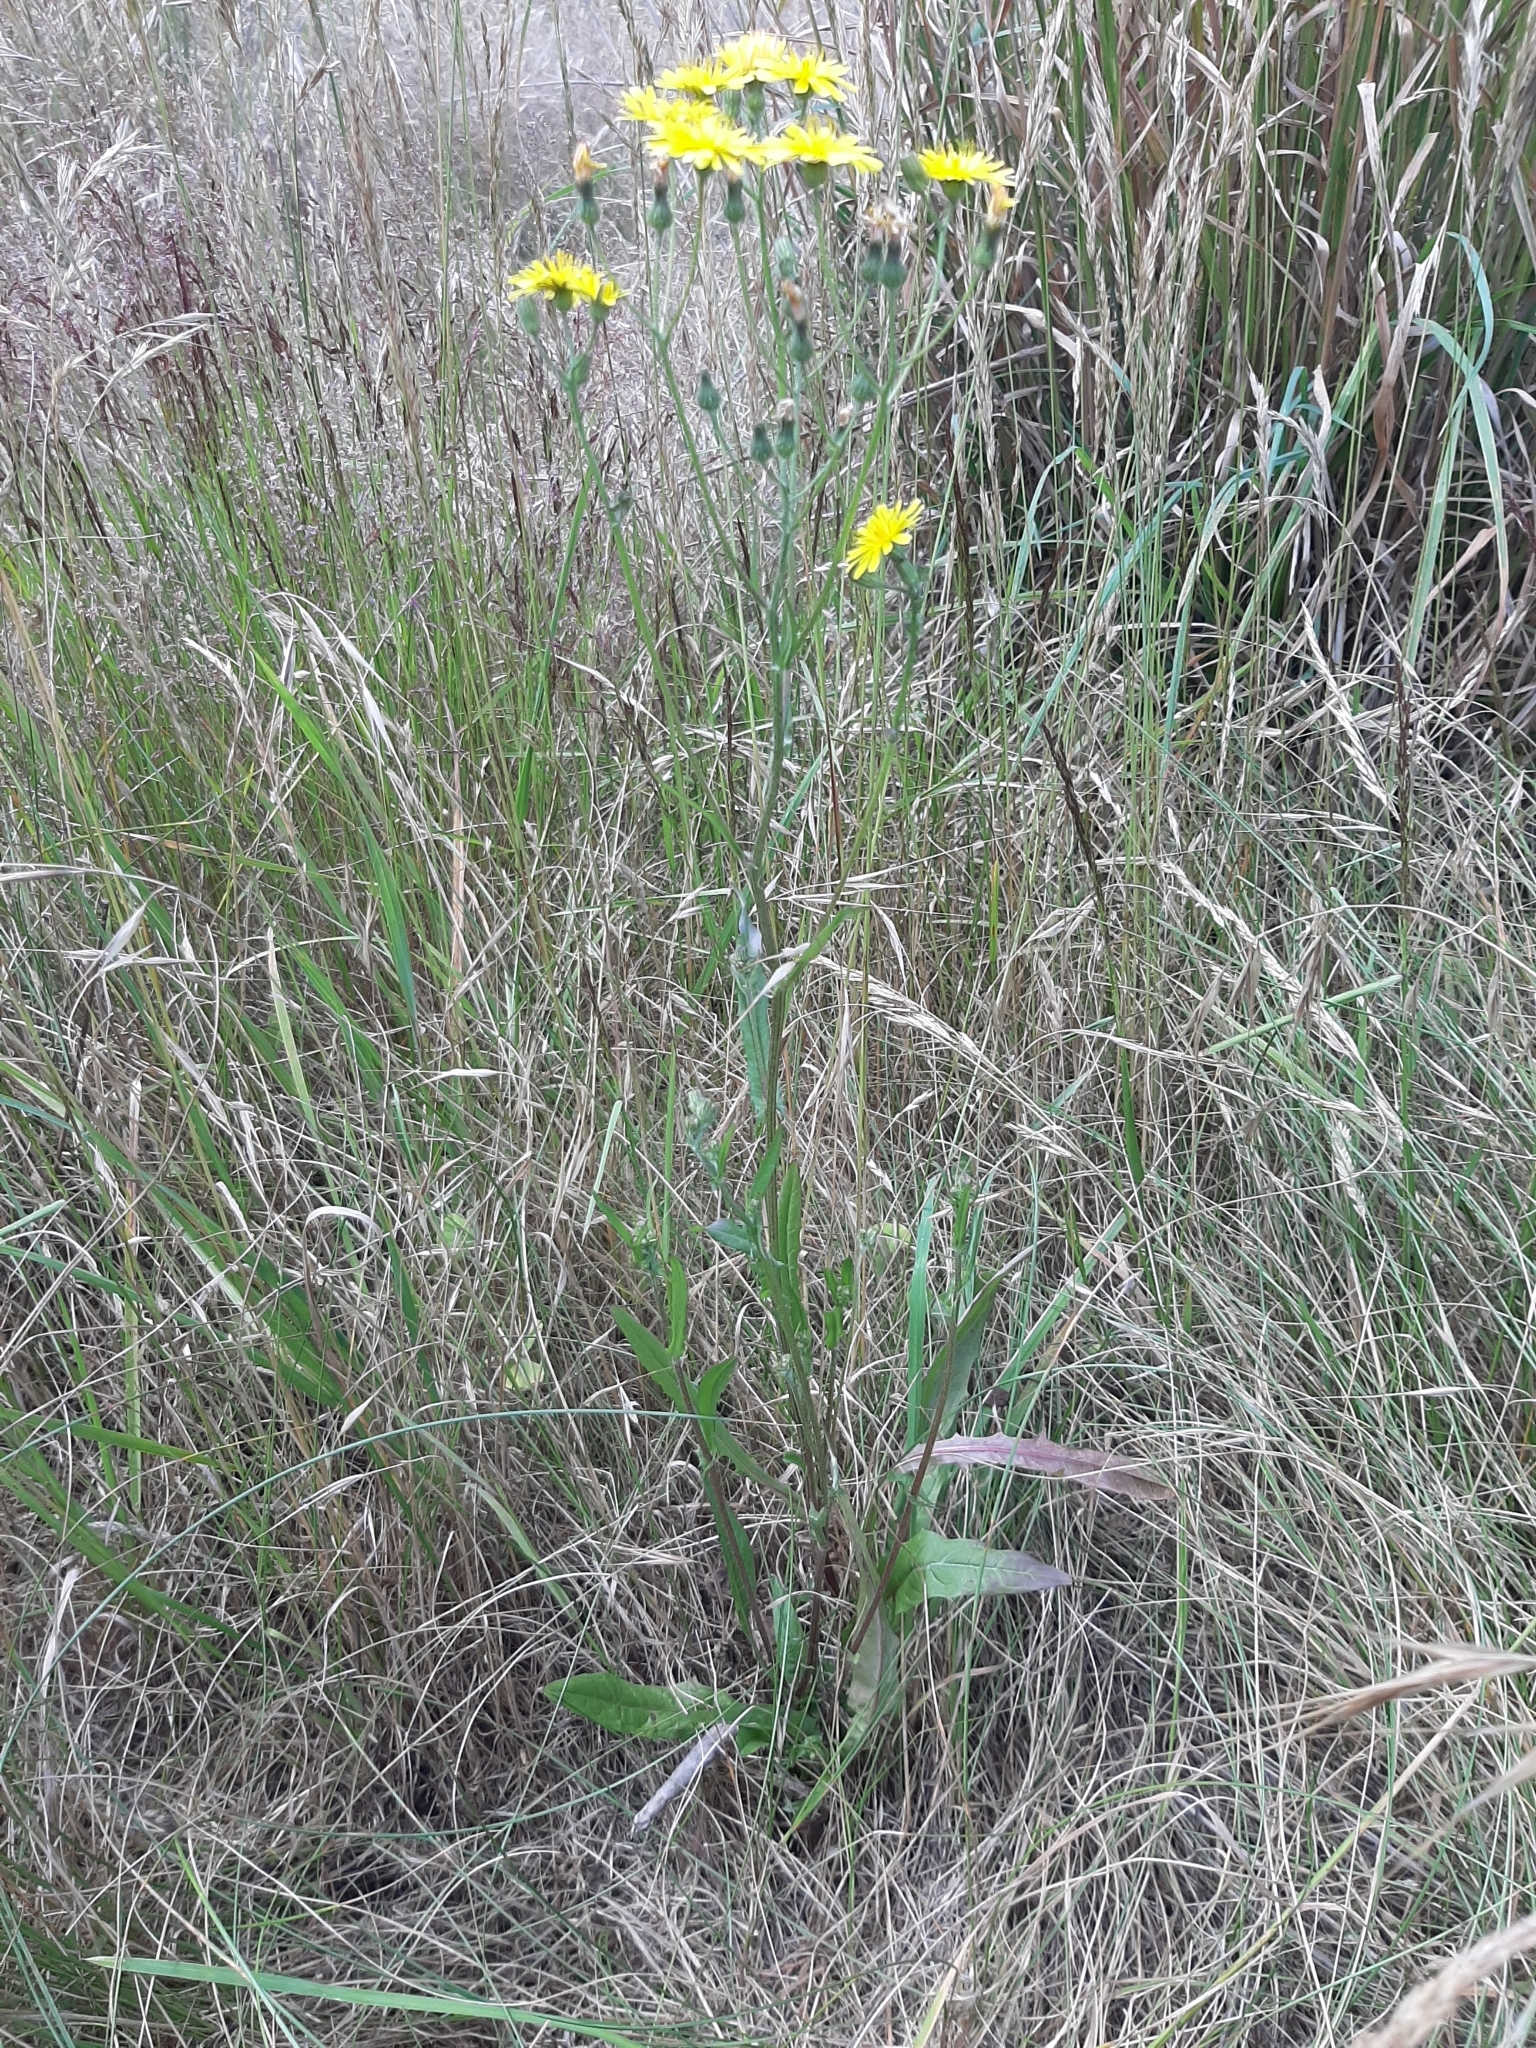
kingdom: Plantae
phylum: Tracheophyta
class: Magnoliopsida
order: Asterales
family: Asteraceae
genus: Crepis
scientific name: Crepis capillaris
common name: Smooth hawksbeard
